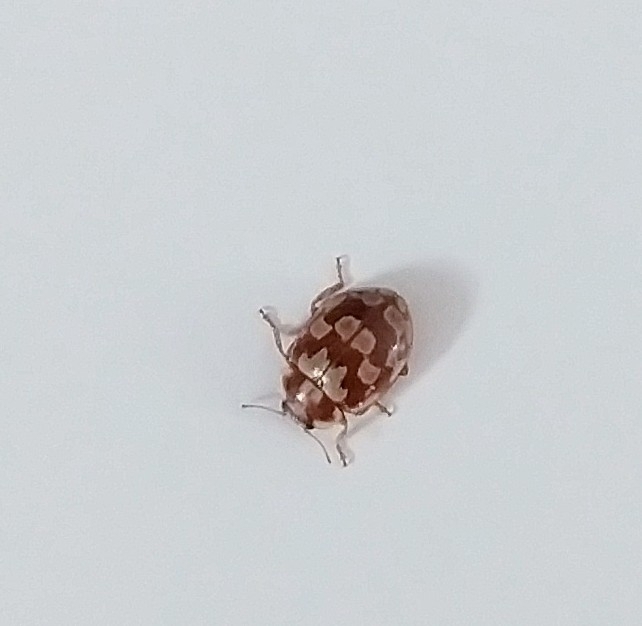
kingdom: Animalia
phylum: Arthropoda
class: Insecta
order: Coleoptera
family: Coccinellidae
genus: Myrrha
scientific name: Myrrha octodecimguttata
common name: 18-spot ladybird
